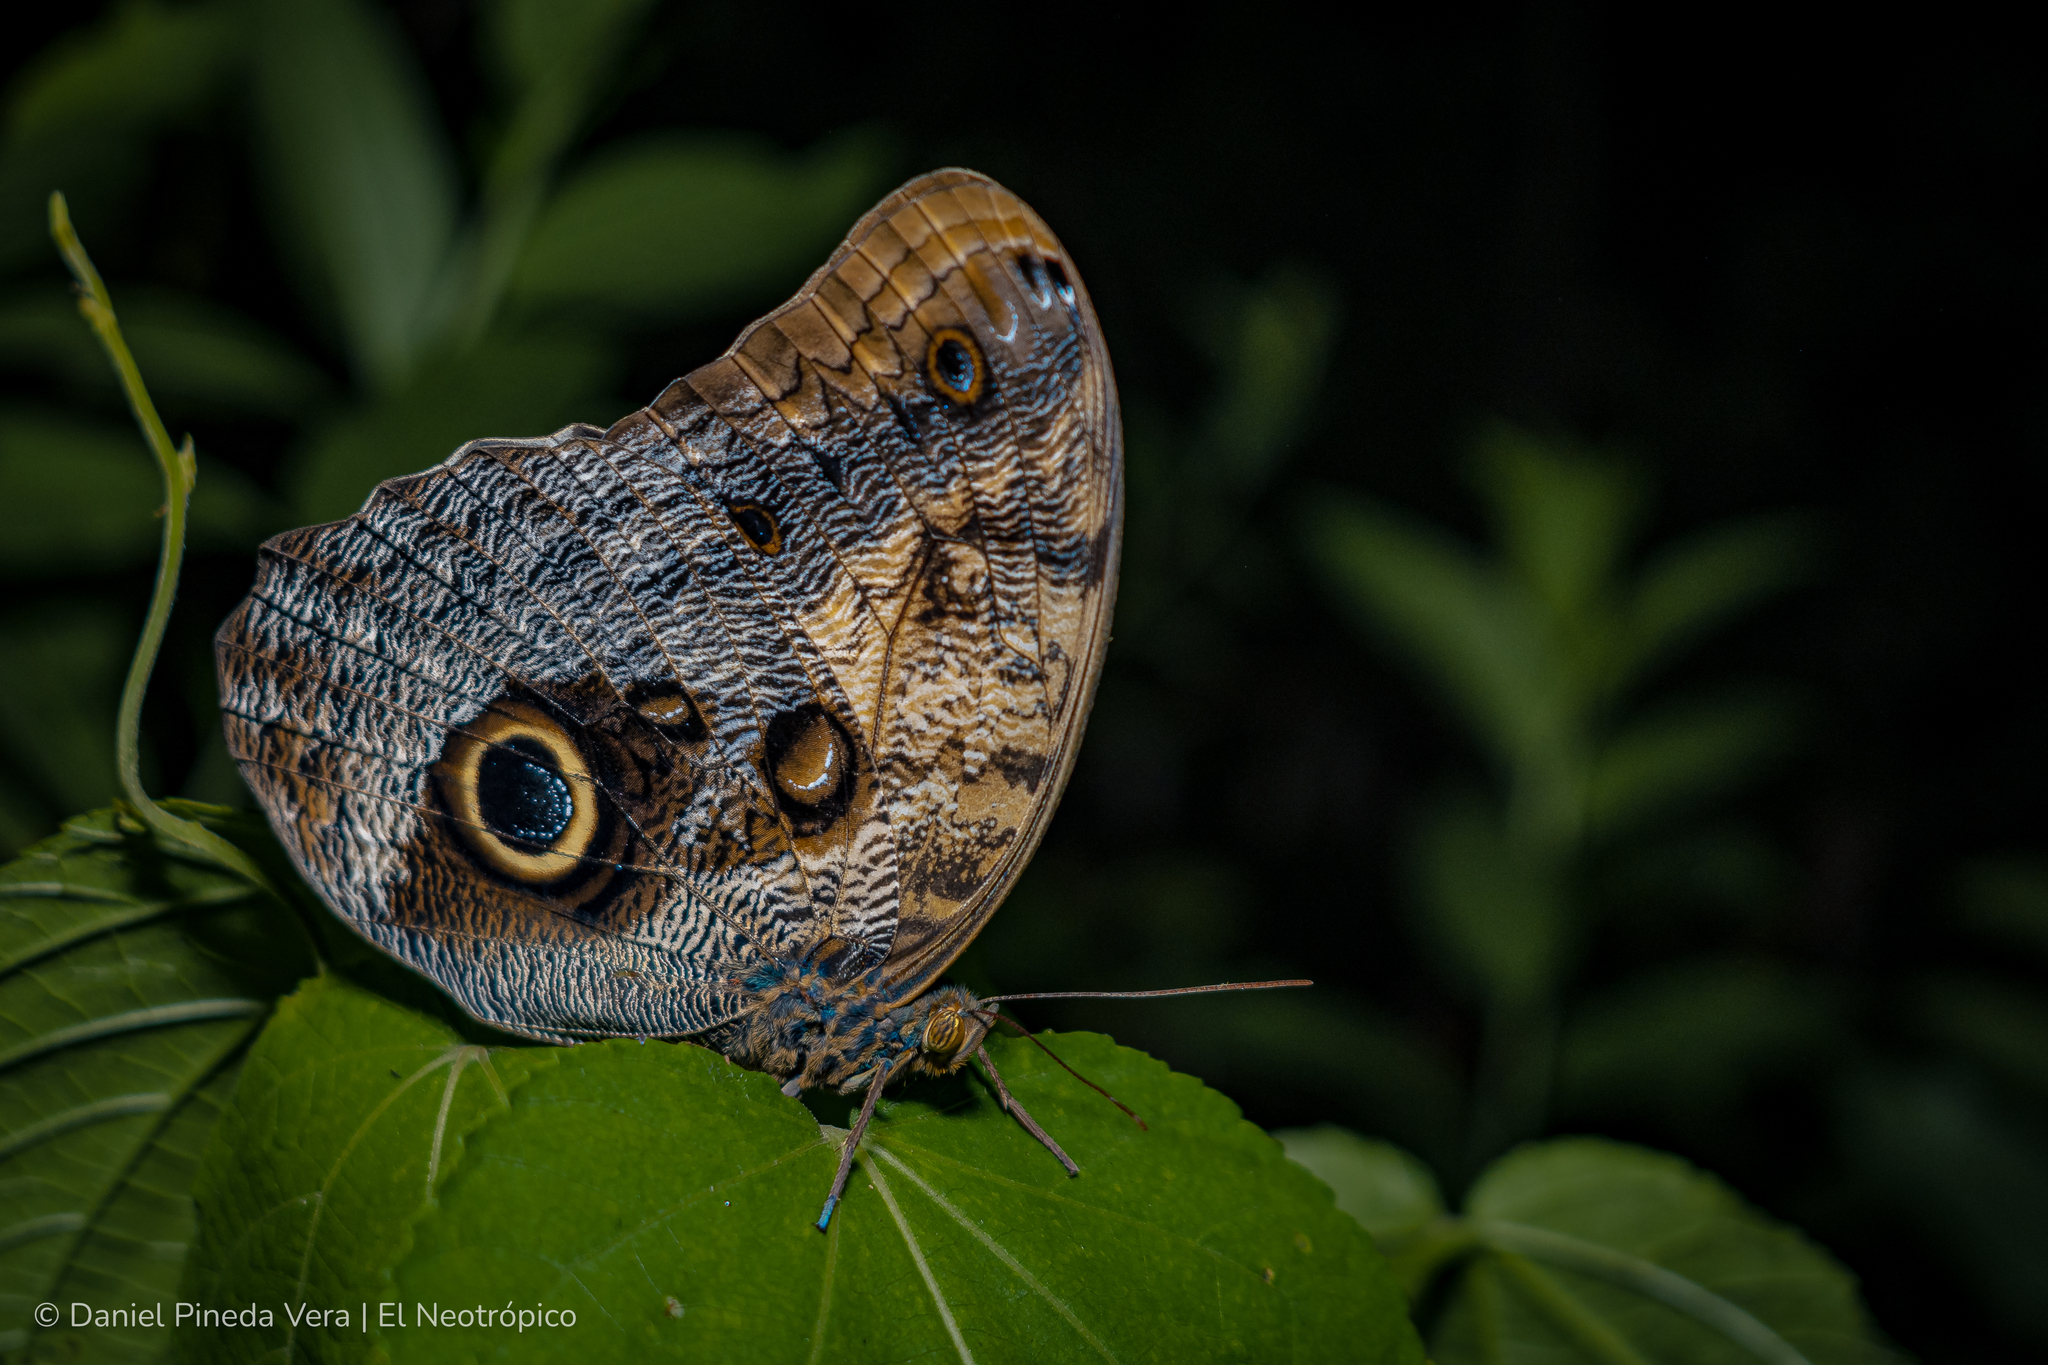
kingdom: Animalia
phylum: Arthropoda
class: Insecta
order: Lepidoptera
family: Nymphalidae
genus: Caligo
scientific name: Caligo telamonius
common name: Pale owl-butterfly
